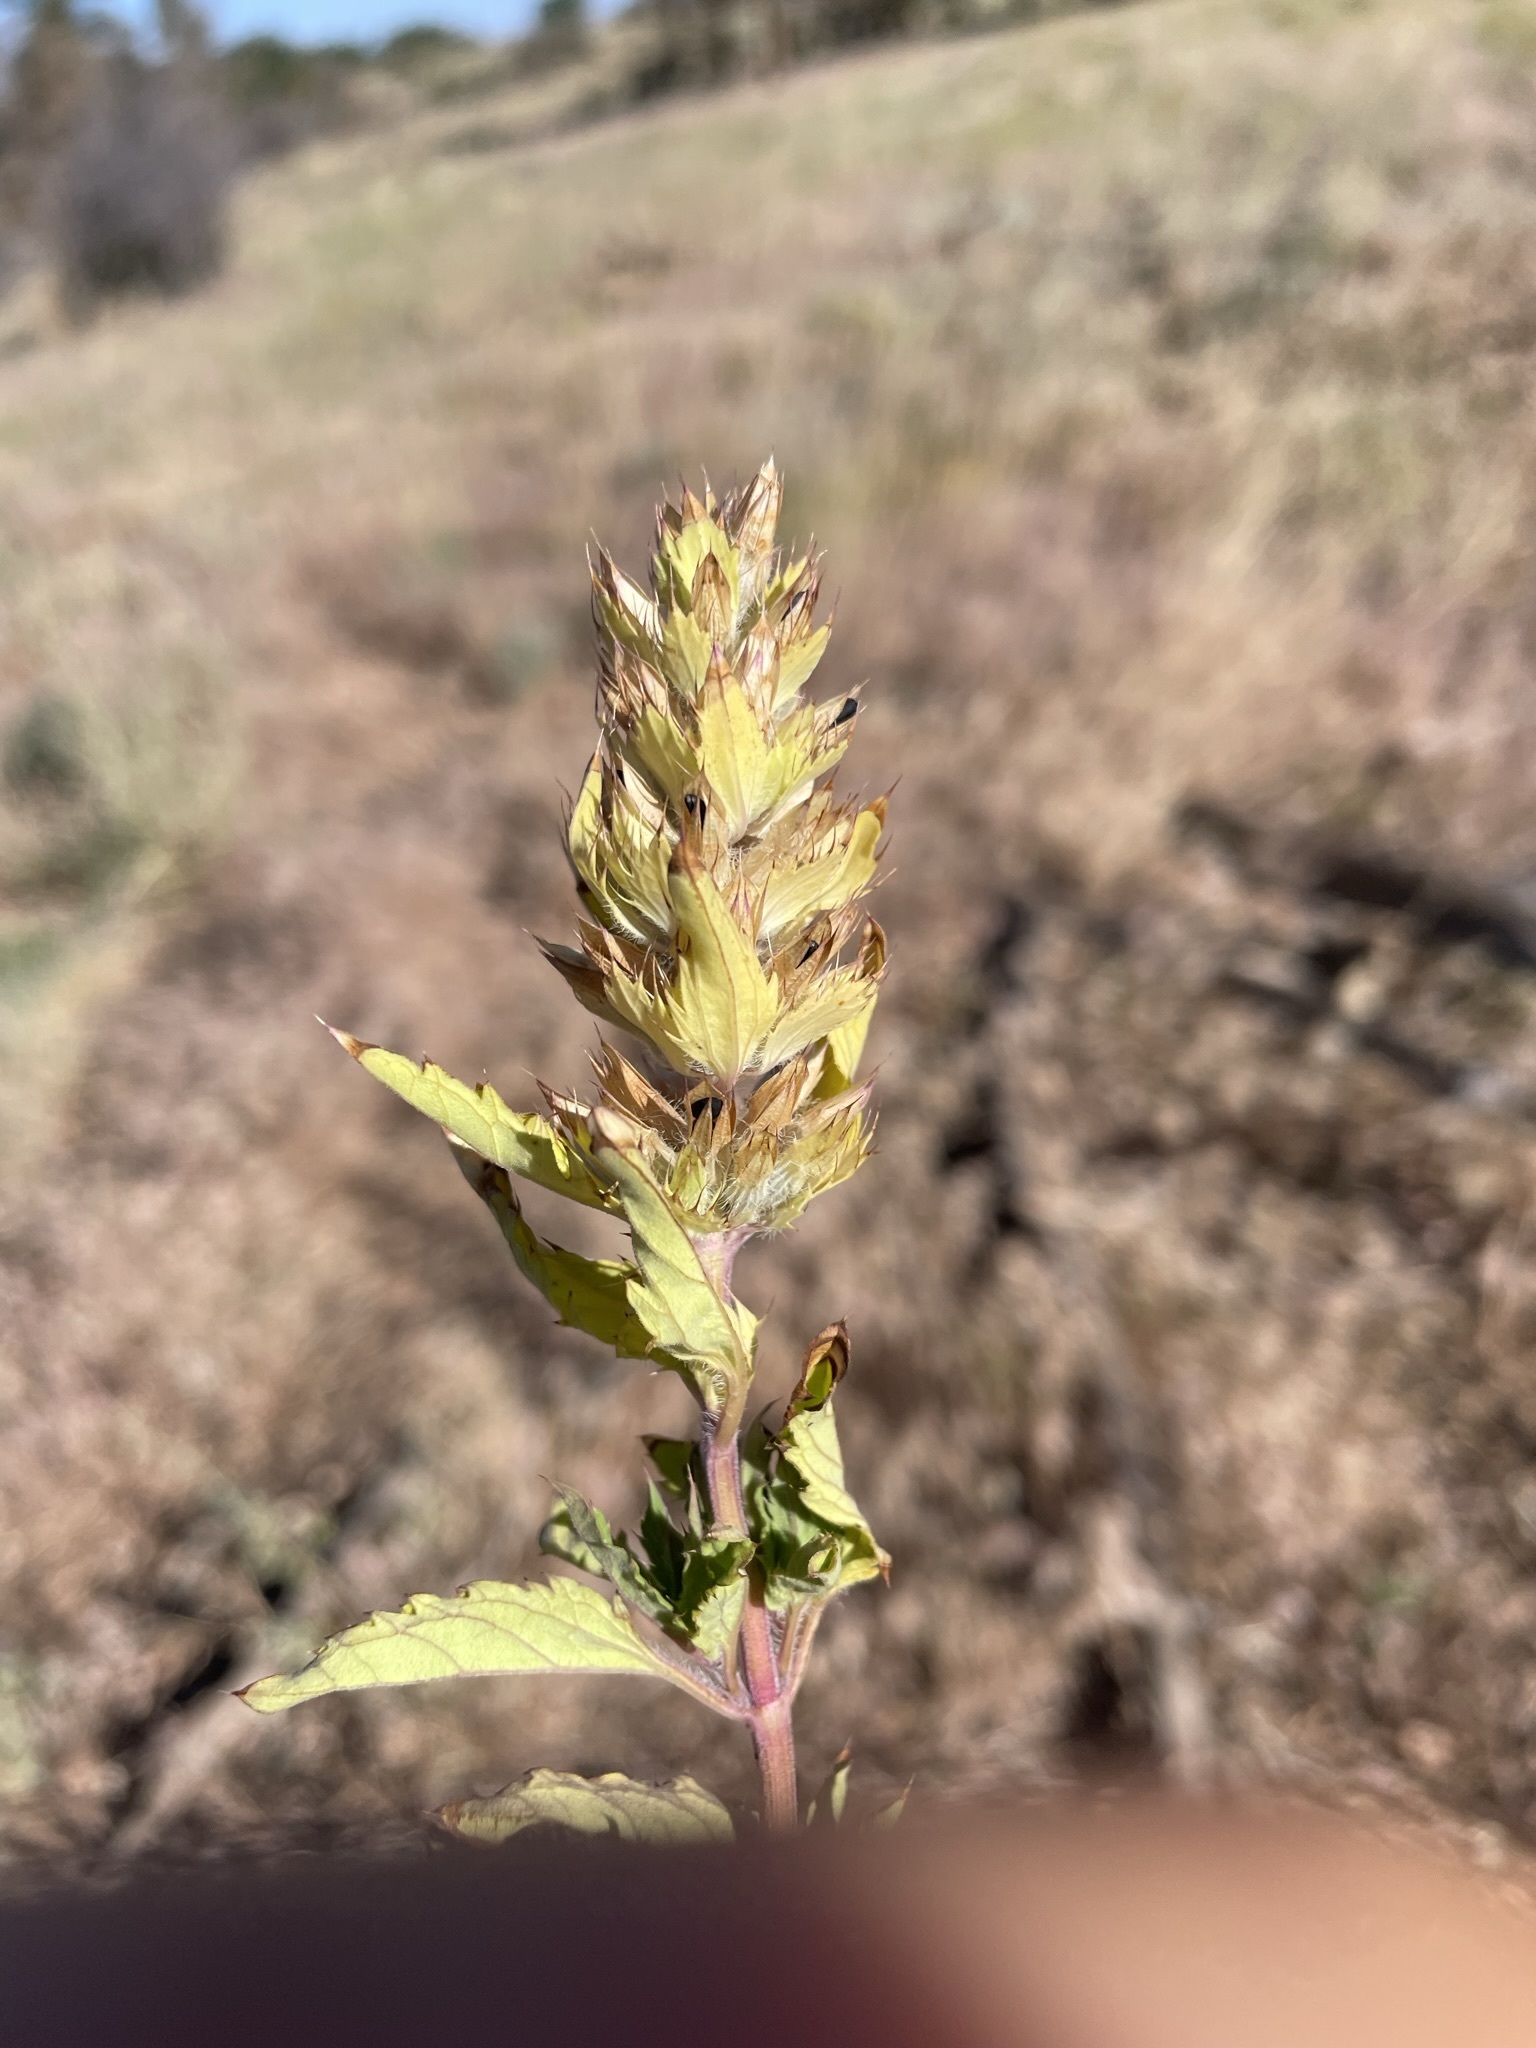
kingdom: Plantae
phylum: Tracheophyta
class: Magnoliopsida
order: Lamiales
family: Lamiaceae
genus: Dracocephalum
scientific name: Dracocephalum parviflorum
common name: American dragonhead
